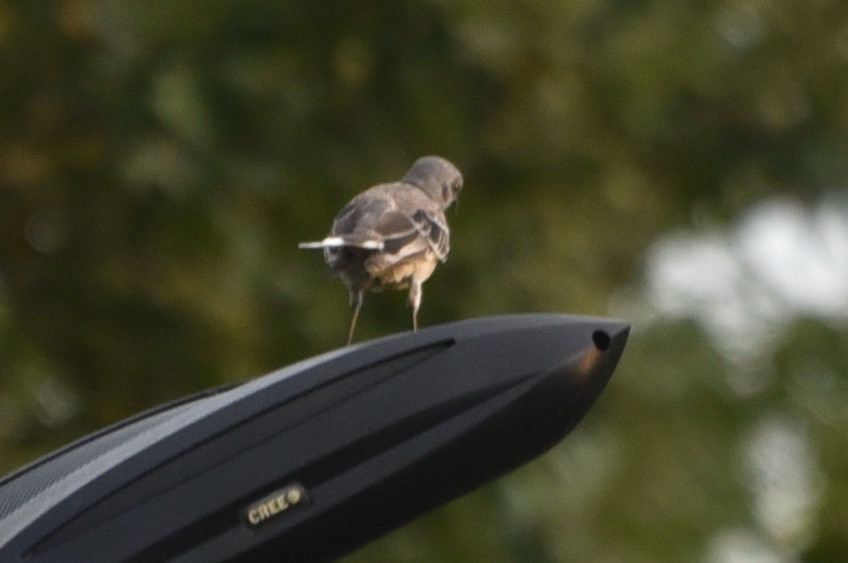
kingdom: Animalia
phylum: Chordata
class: Aves
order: Passeriformes
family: Mimidae
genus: Mimus
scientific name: Mimus polyglottos
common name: Northern mockingbird
